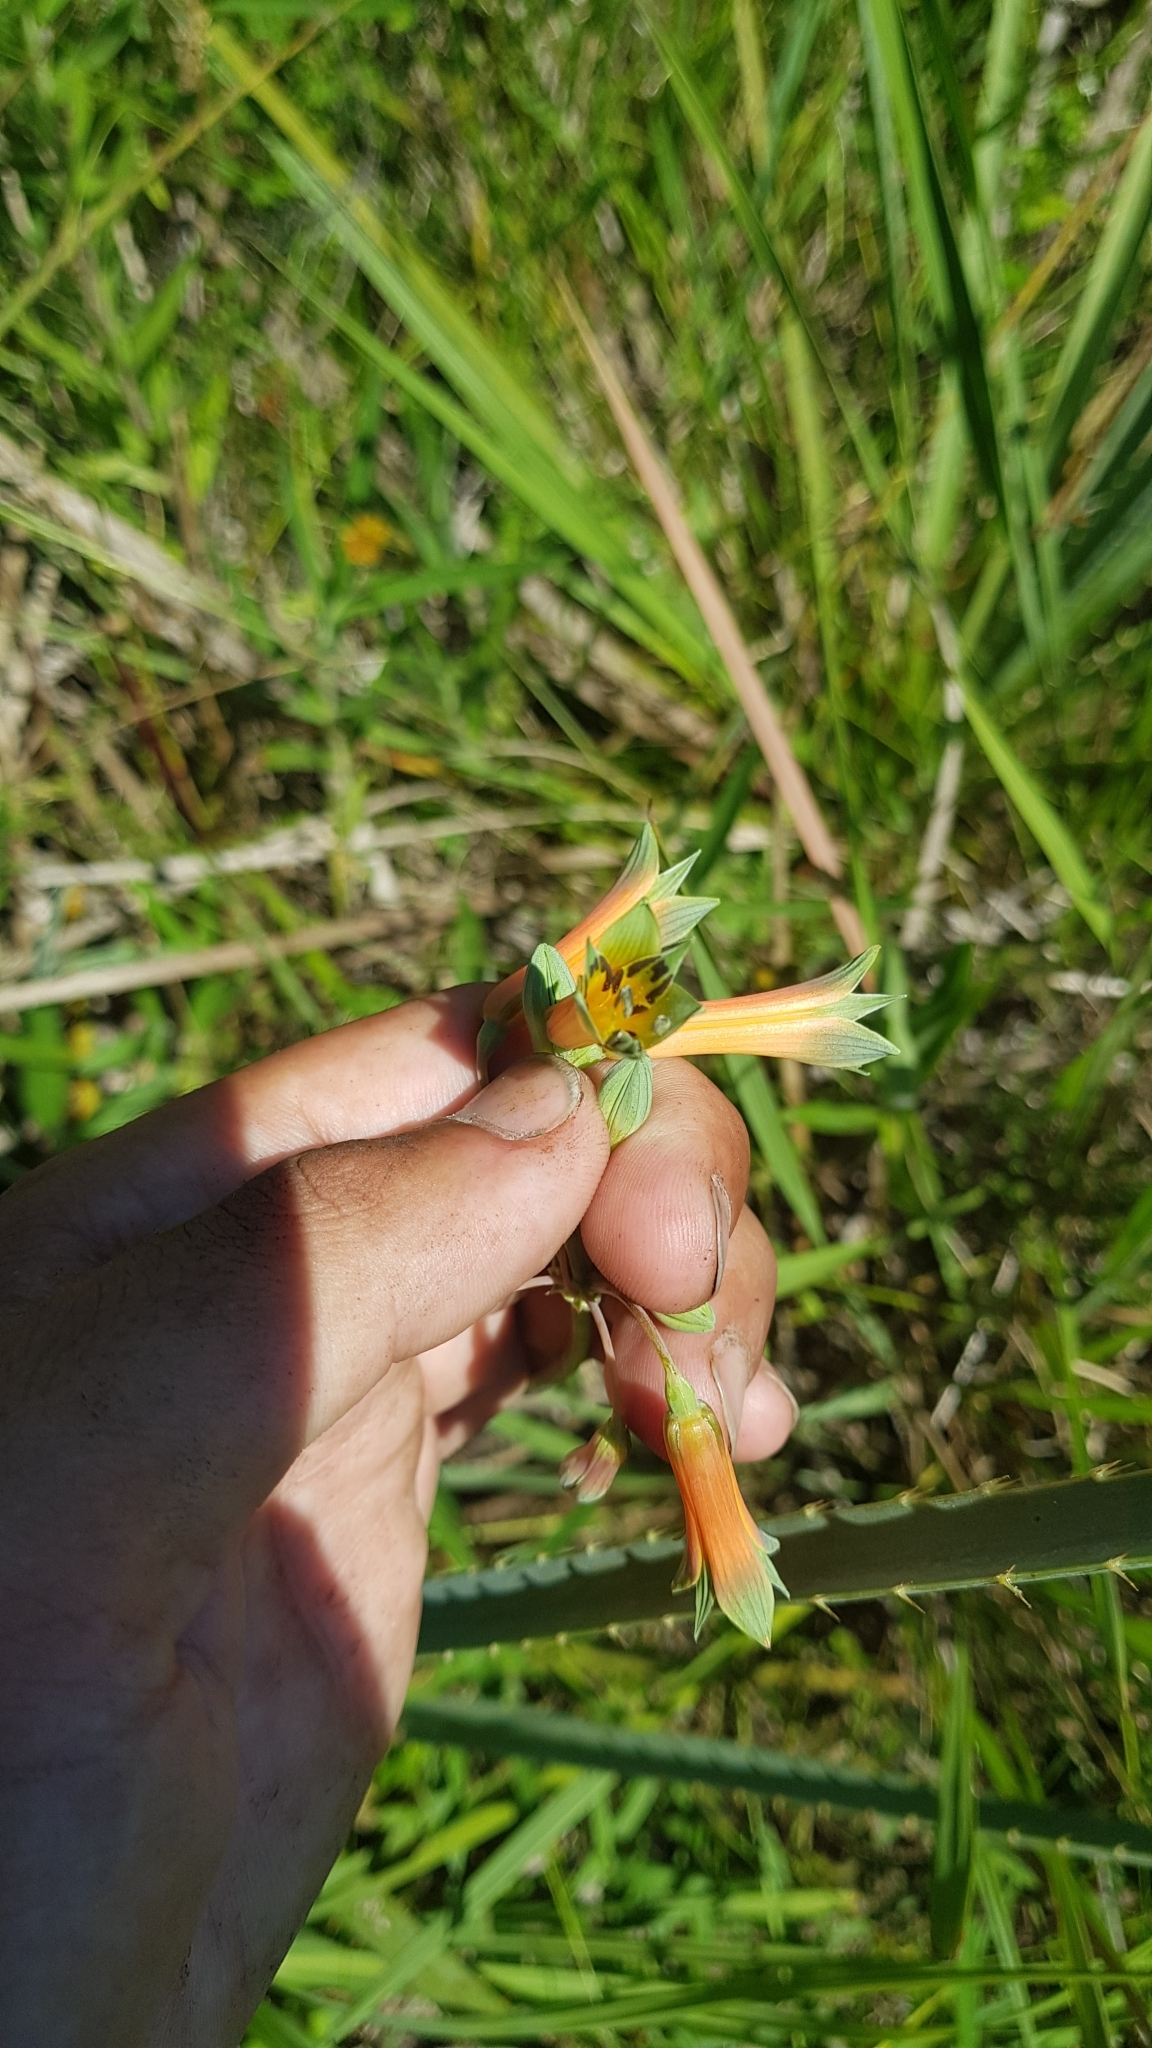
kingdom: Plantae
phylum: Tracheophyta
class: Liliopsida
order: Liliales
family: Alstroemeriaceae
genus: Alstroemeria
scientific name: Alstroemeria isabelleana
